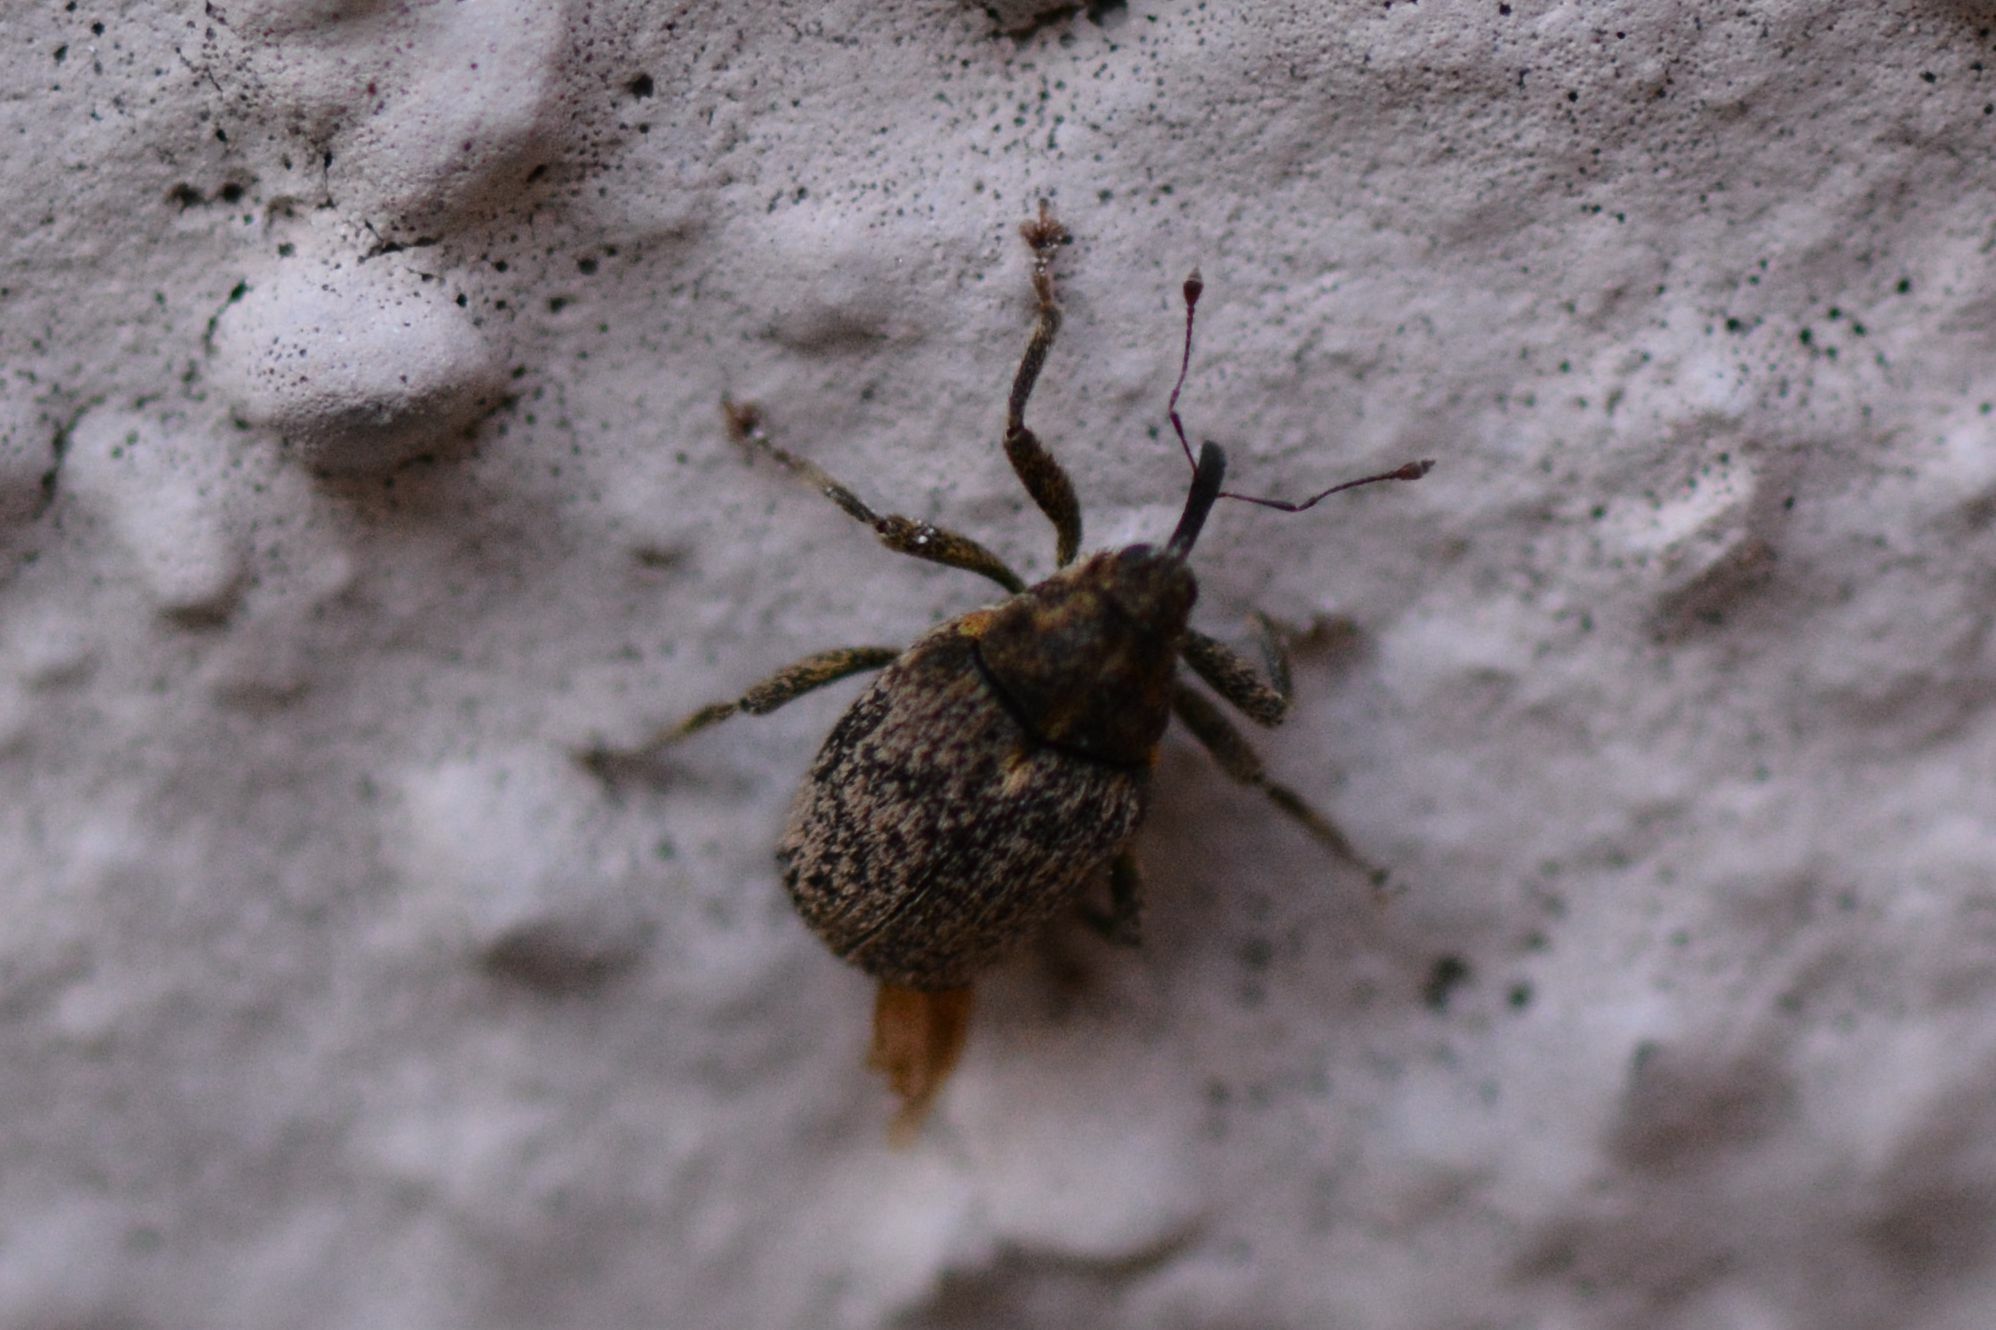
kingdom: Animalia
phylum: Arthropoda
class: Insecta
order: Coleoptera
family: Curculionidae
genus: Ceutorhynchus
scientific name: Ceutorhynchus pallidactylus
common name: Cabbage stem weavil
